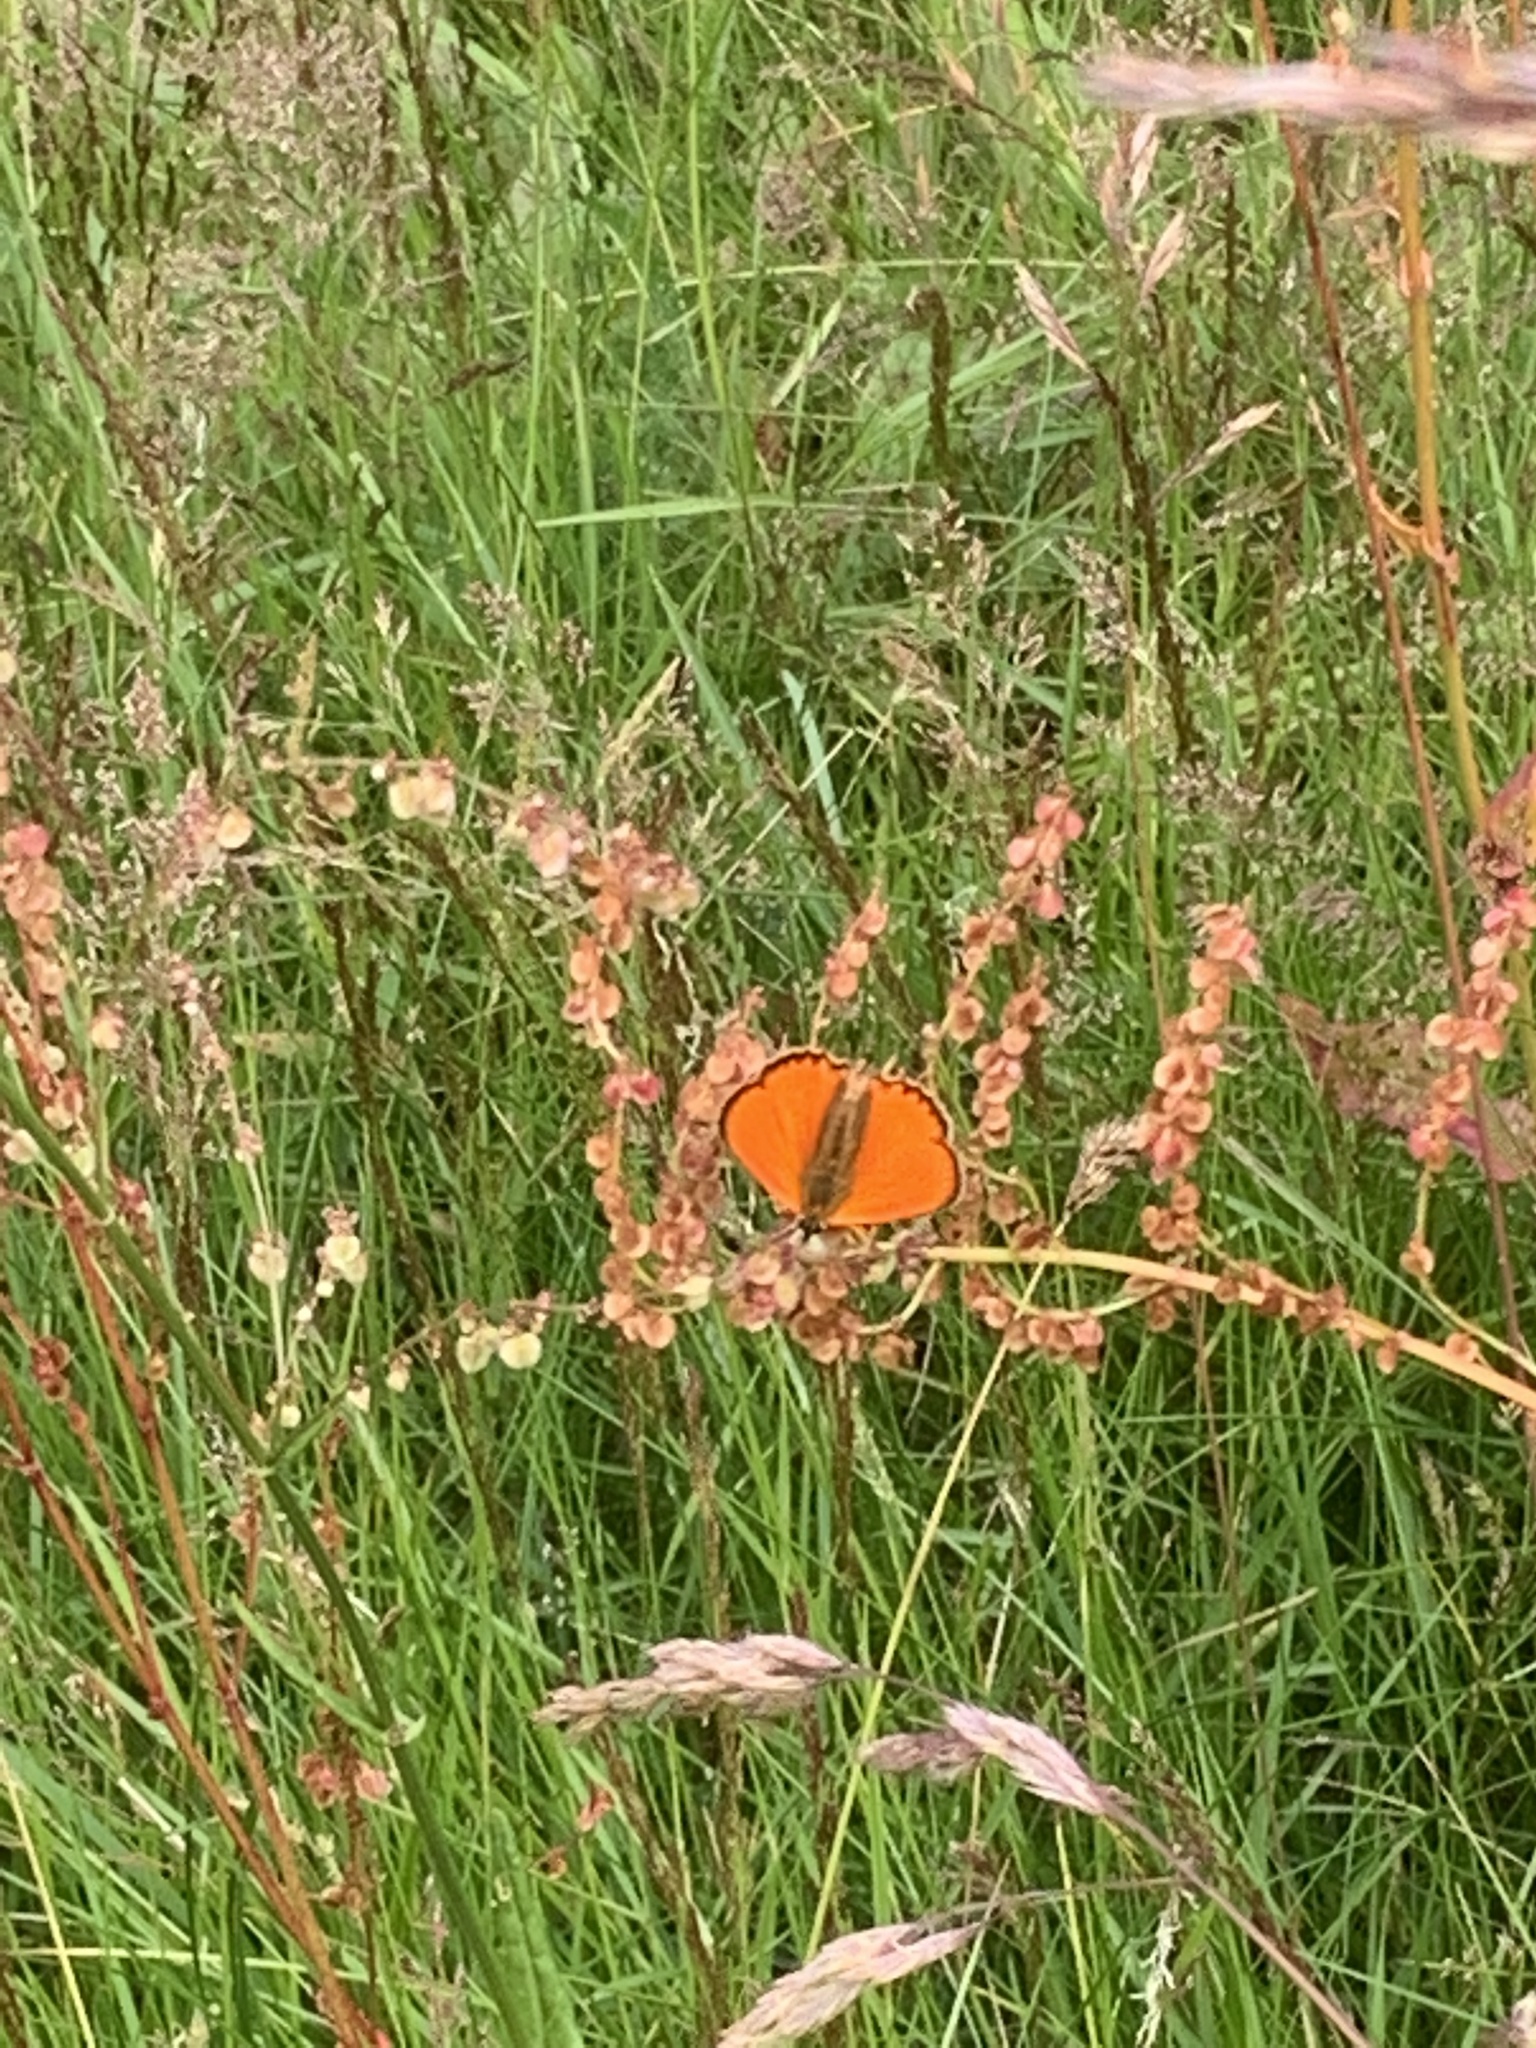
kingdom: Animalia
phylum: Arthropoda
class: Insecta
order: Lepidoptera
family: Lycaenidae
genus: Lycaena
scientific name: Lycaena virgaureae
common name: Scarce copper
